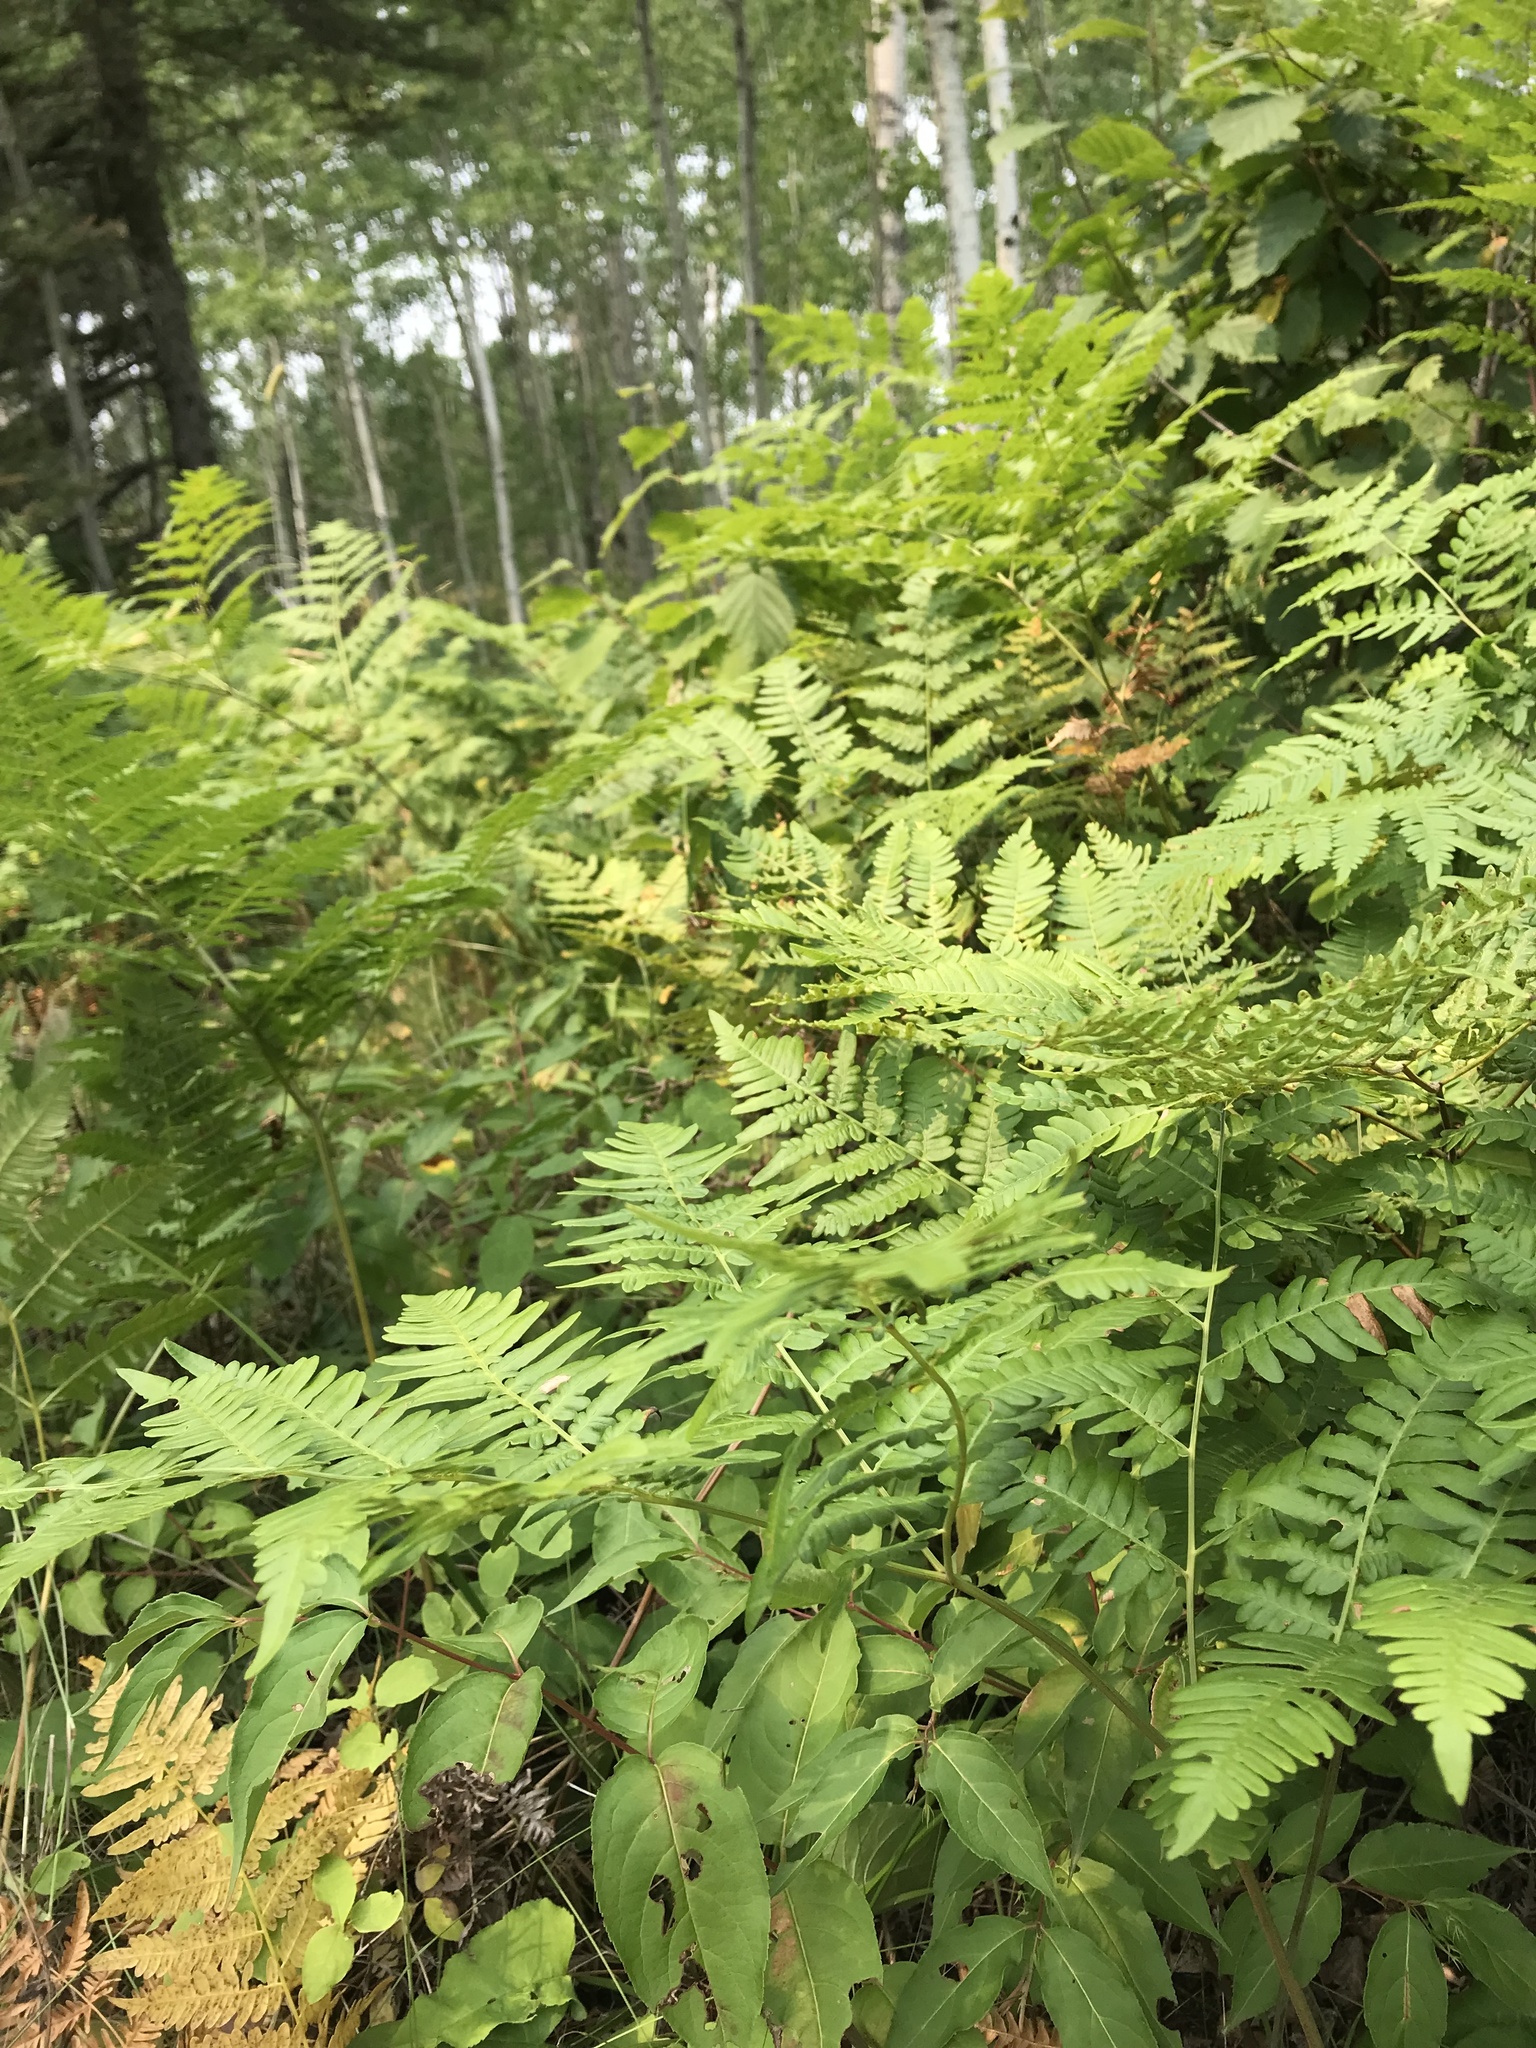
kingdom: Plantae
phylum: Tracheophyta
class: Polypodiopsida
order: Polypodiales
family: Dennstaedtiaceae
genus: Pteridium
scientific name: Pteridium aquilinum
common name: Bracken
